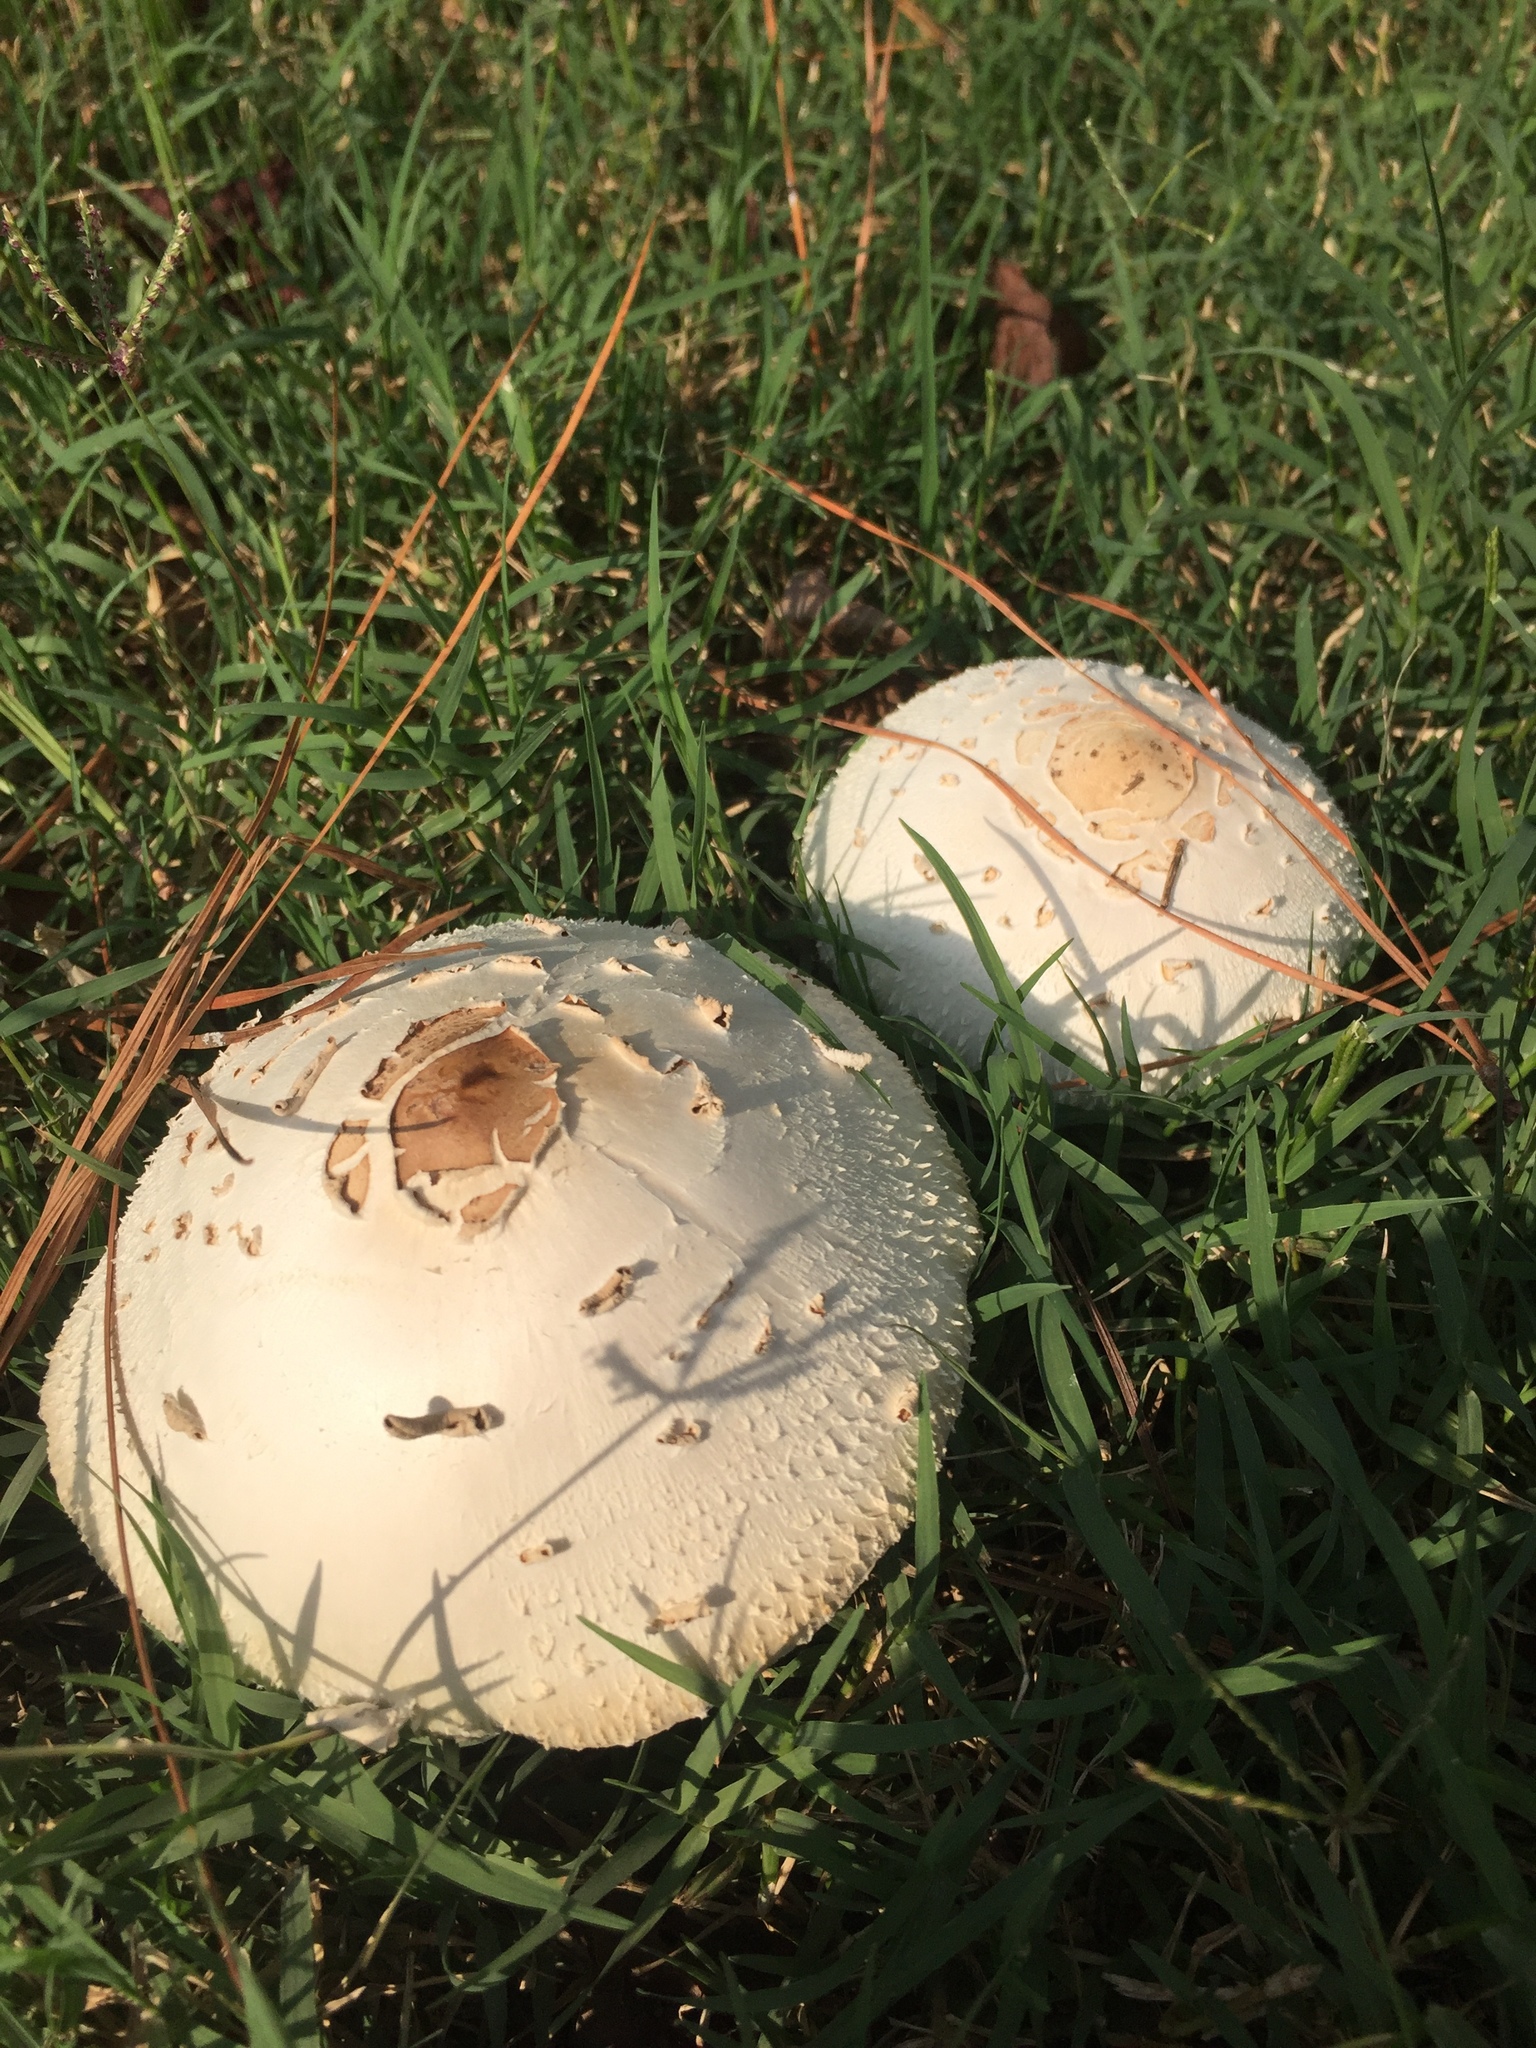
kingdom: Fungi
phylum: Basidiomycota
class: Agaricomycetes
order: Agaricales
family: Agaricaceae
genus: Chlorophyllum
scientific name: Chlorophyllum molybdites
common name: False parasol
